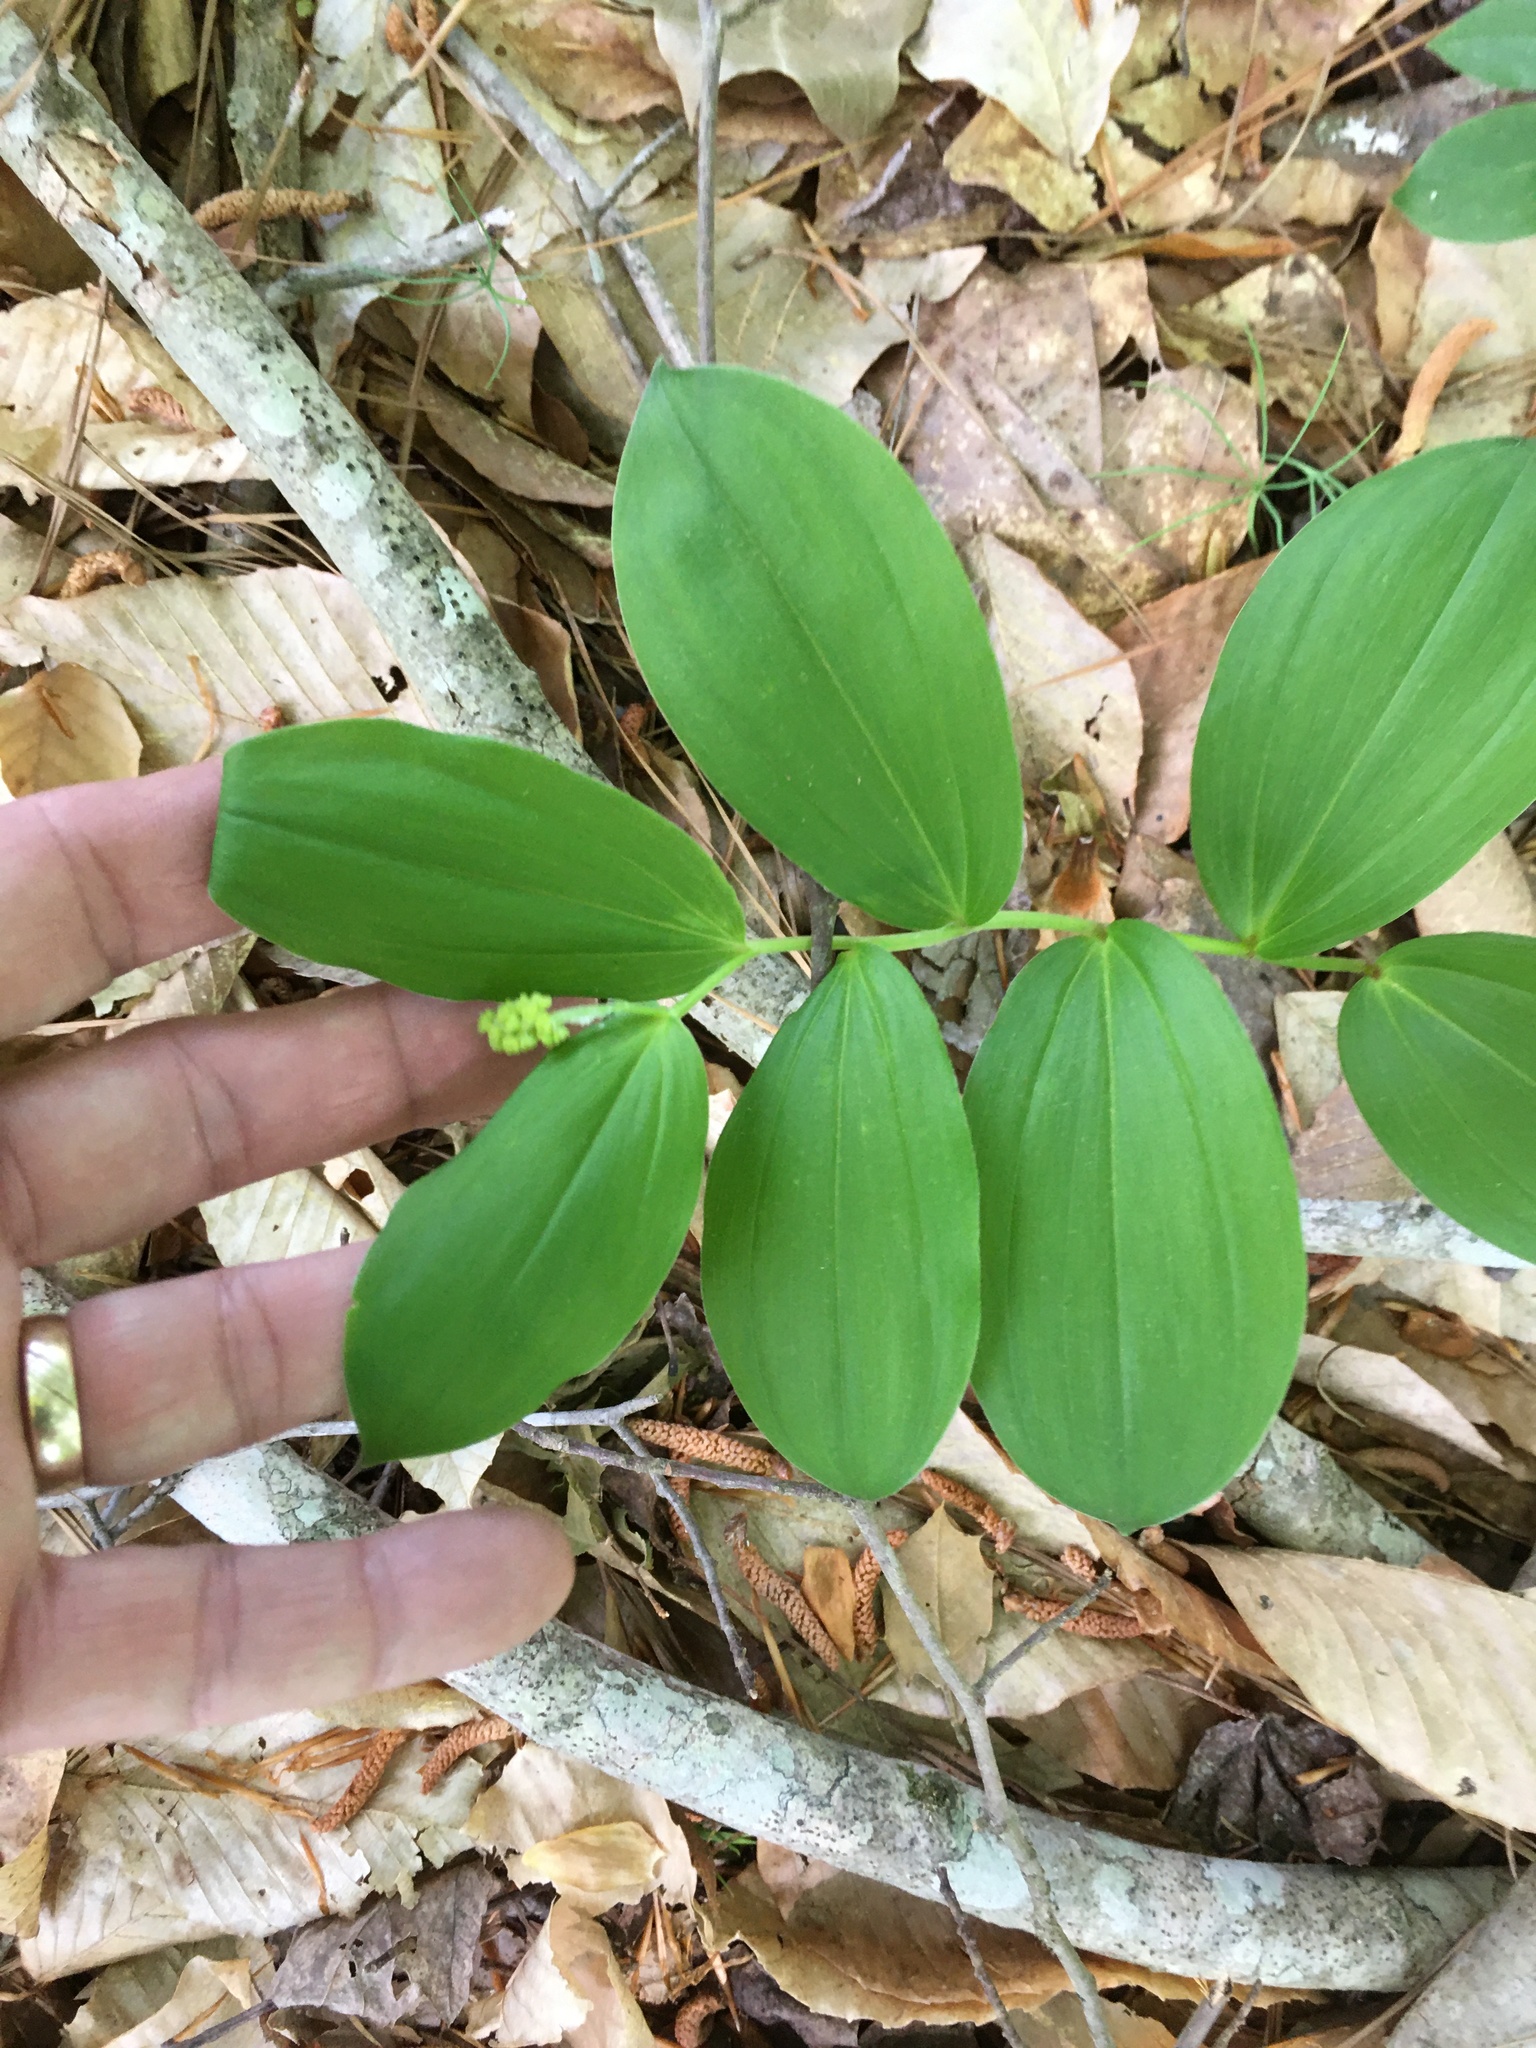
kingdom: Plantae
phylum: Tracheophyta
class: Liliopsida
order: Asparagales
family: Asparagaceae
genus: Maianthemum
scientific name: Maianthemum racemosum
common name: False spikenard
